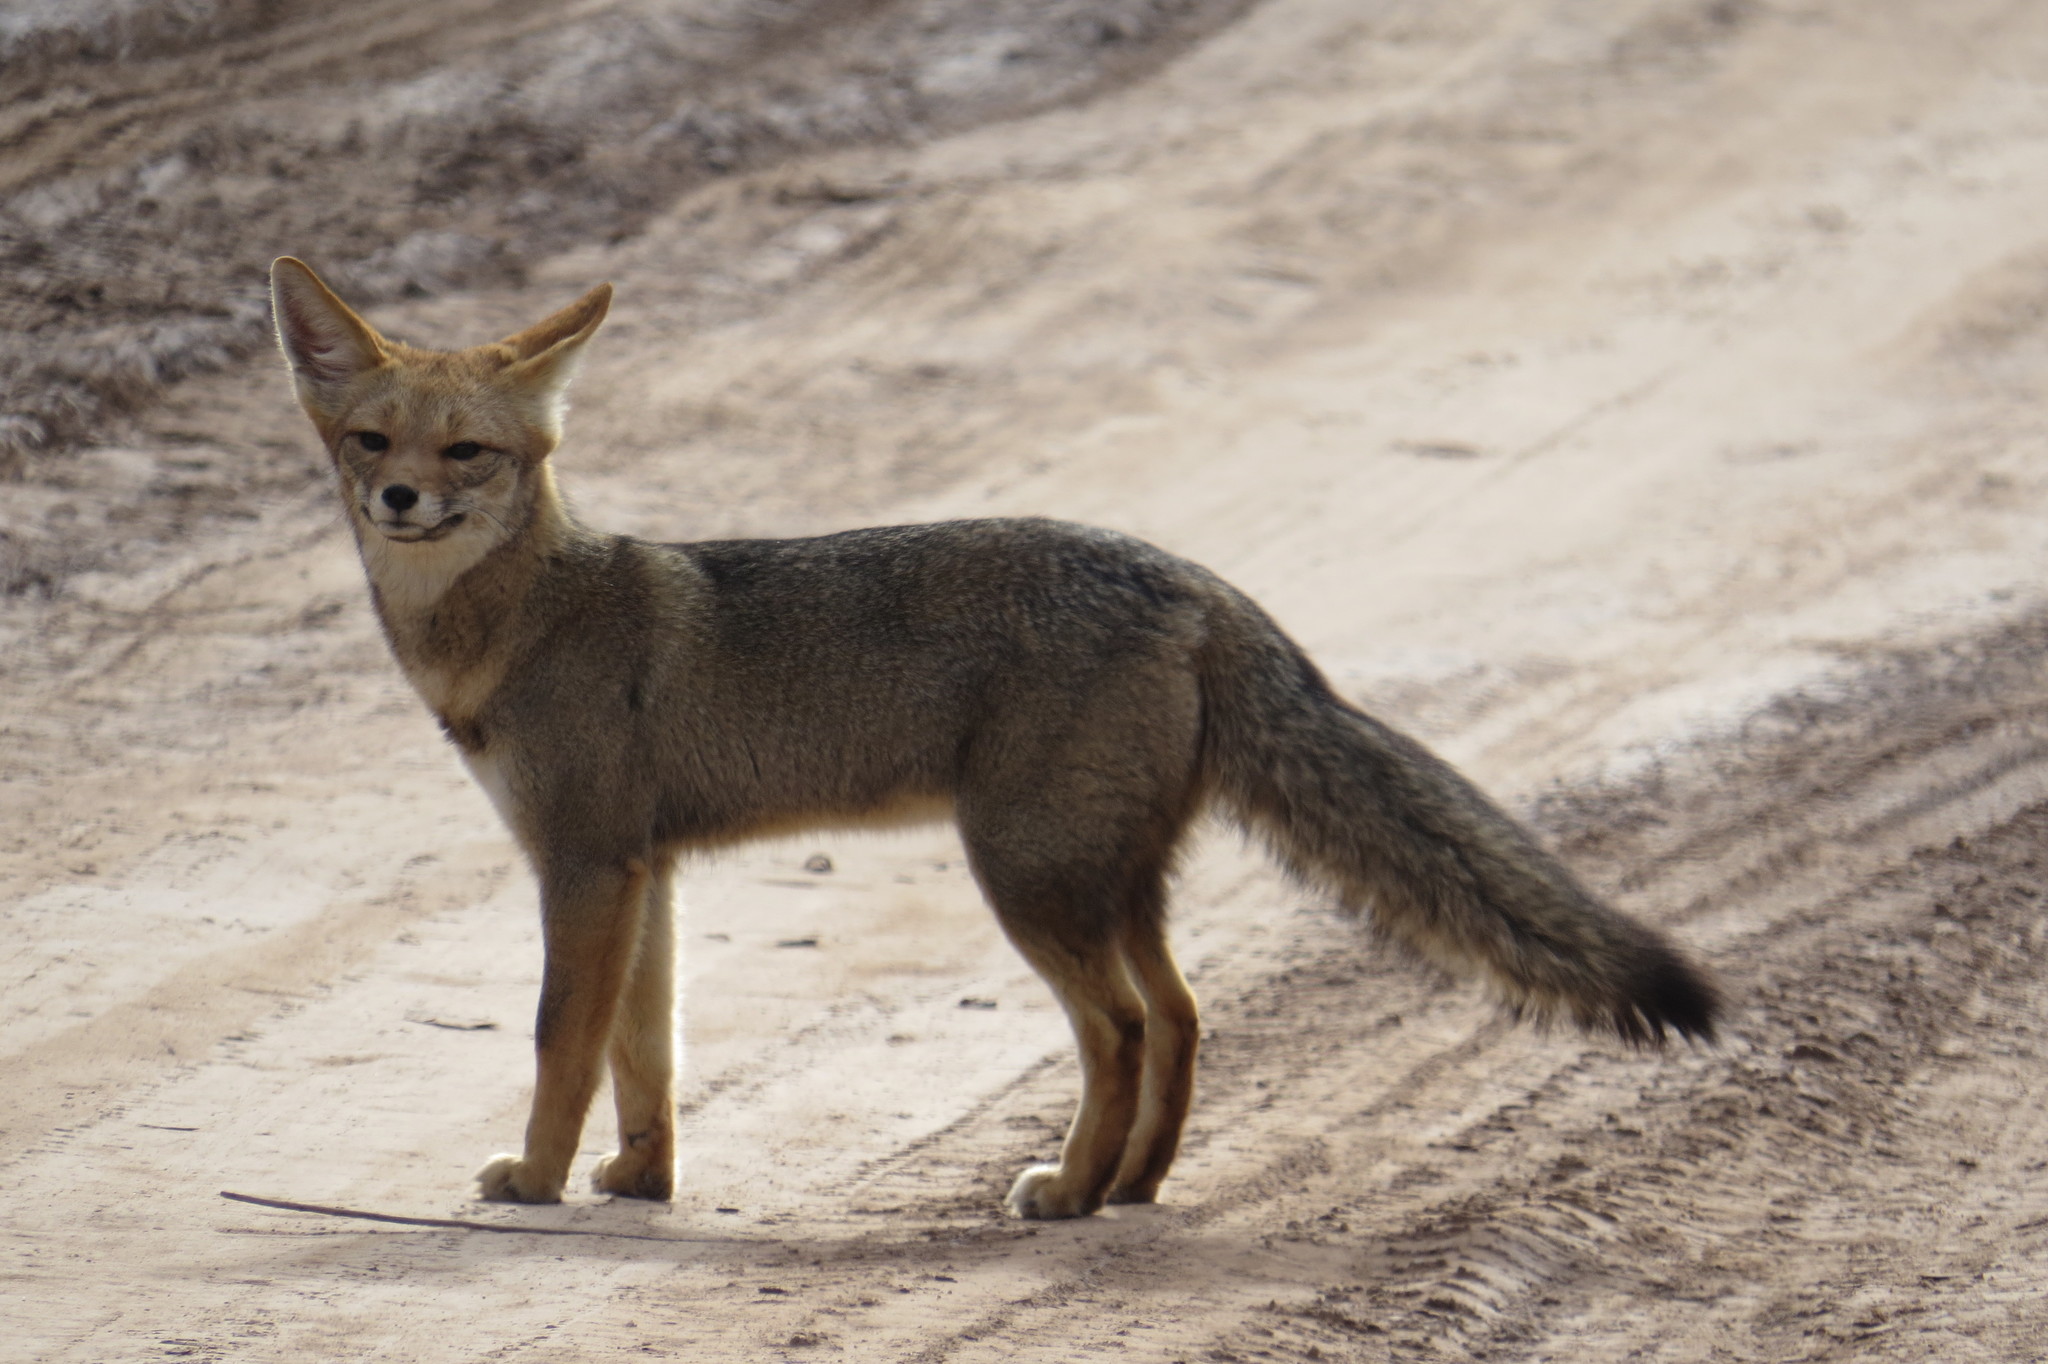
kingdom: Animalia
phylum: Chordata
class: Mammalia
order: Carnivora
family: Canidae
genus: Lycalopex
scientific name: Lycalopex gymnocercus
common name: Pampas fox
